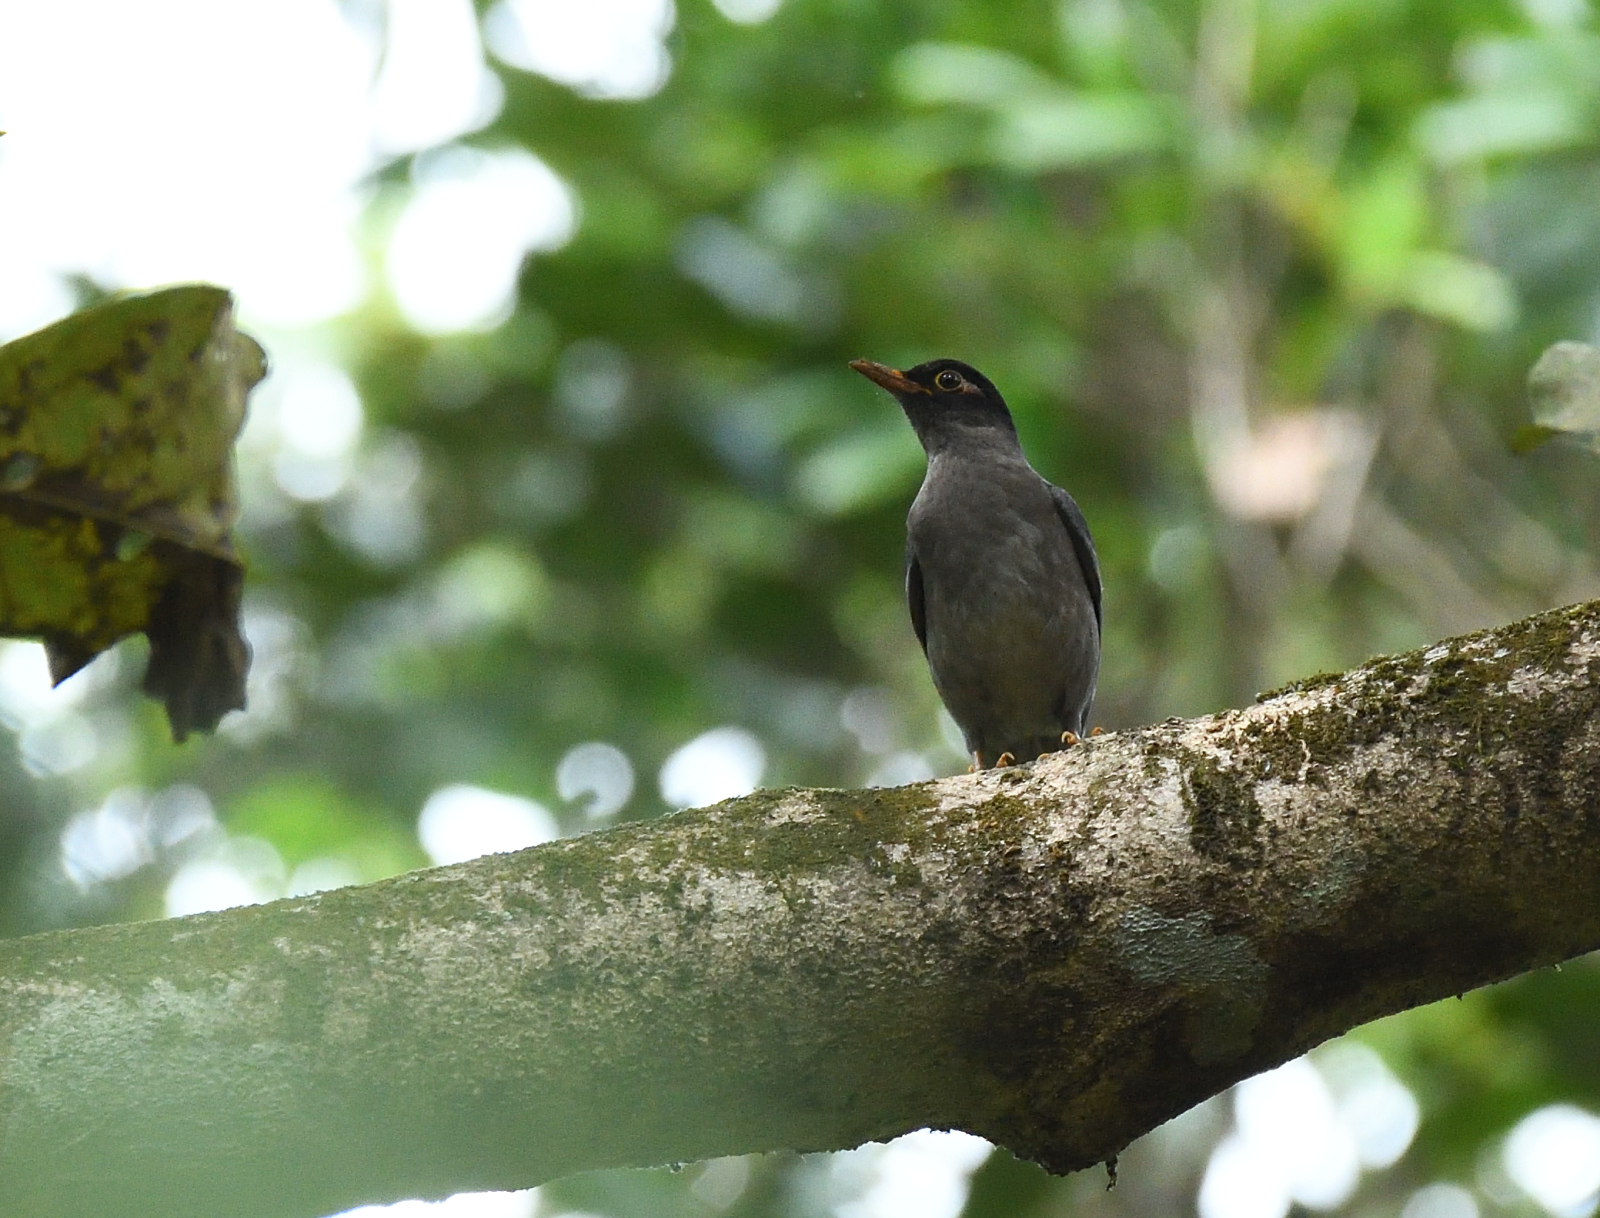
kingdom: Animalia
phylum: Chordata
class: Aves
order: Passeriformes
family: Turdidae
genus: Turdus
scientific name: Turdus simillimus
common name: Indian blackbird
